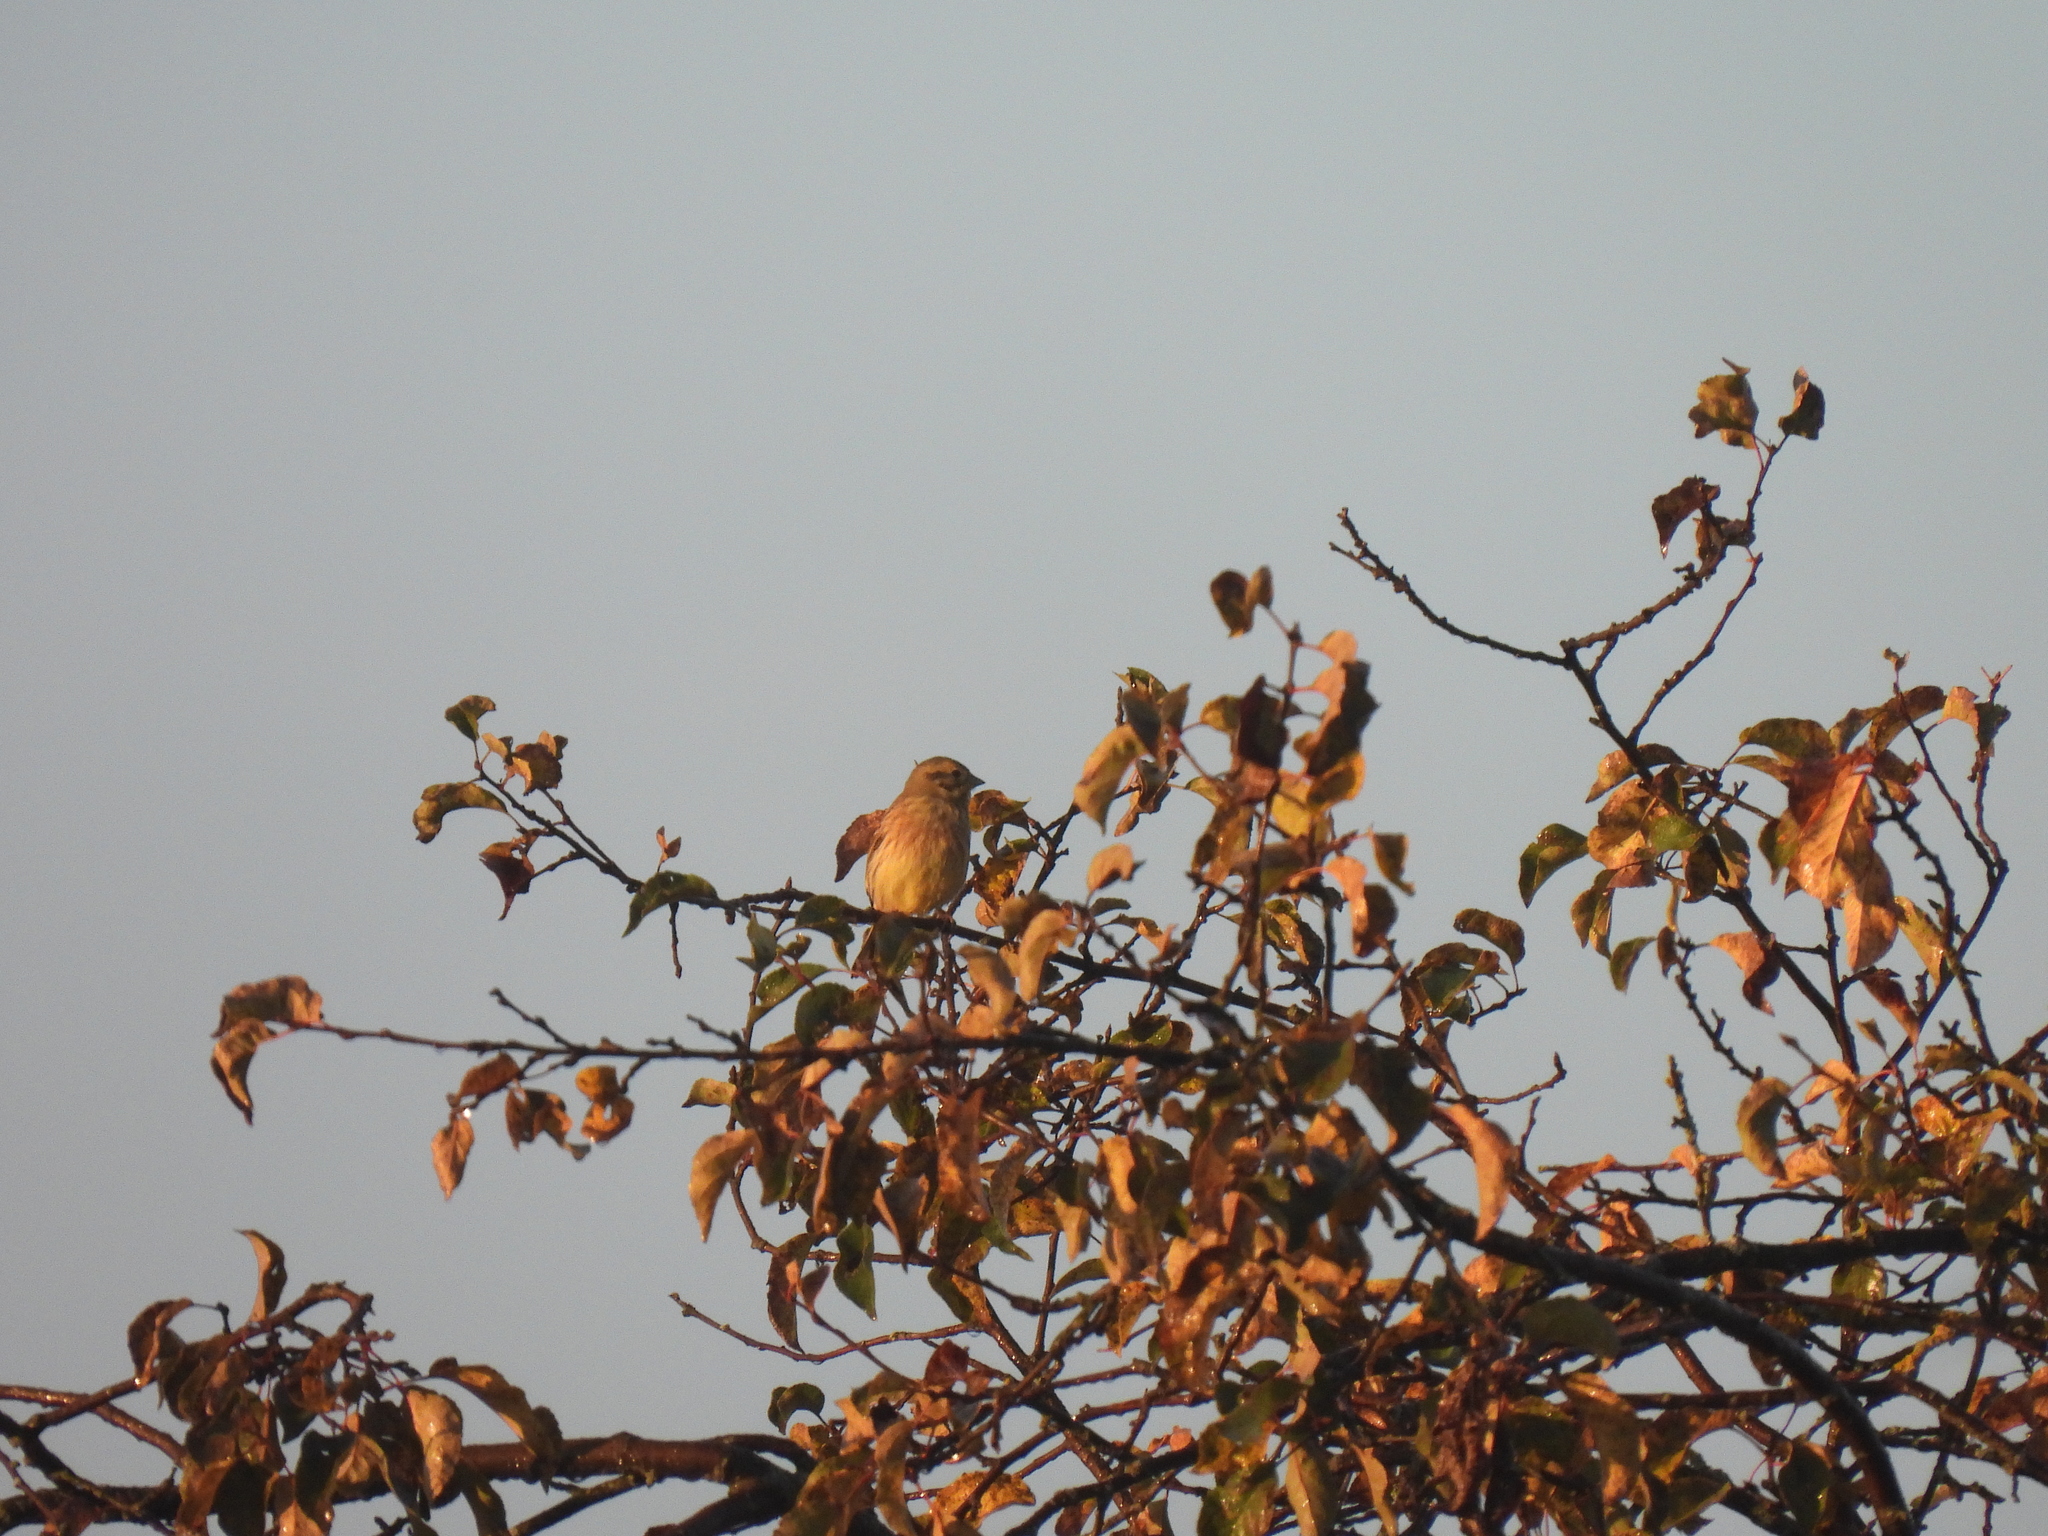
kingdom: Animalia
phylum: Chordata
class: Aves
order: Passeriformes
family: Emberizidae
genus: Emberiza
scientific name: Emberiza citrinella
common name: Yellowhammer
